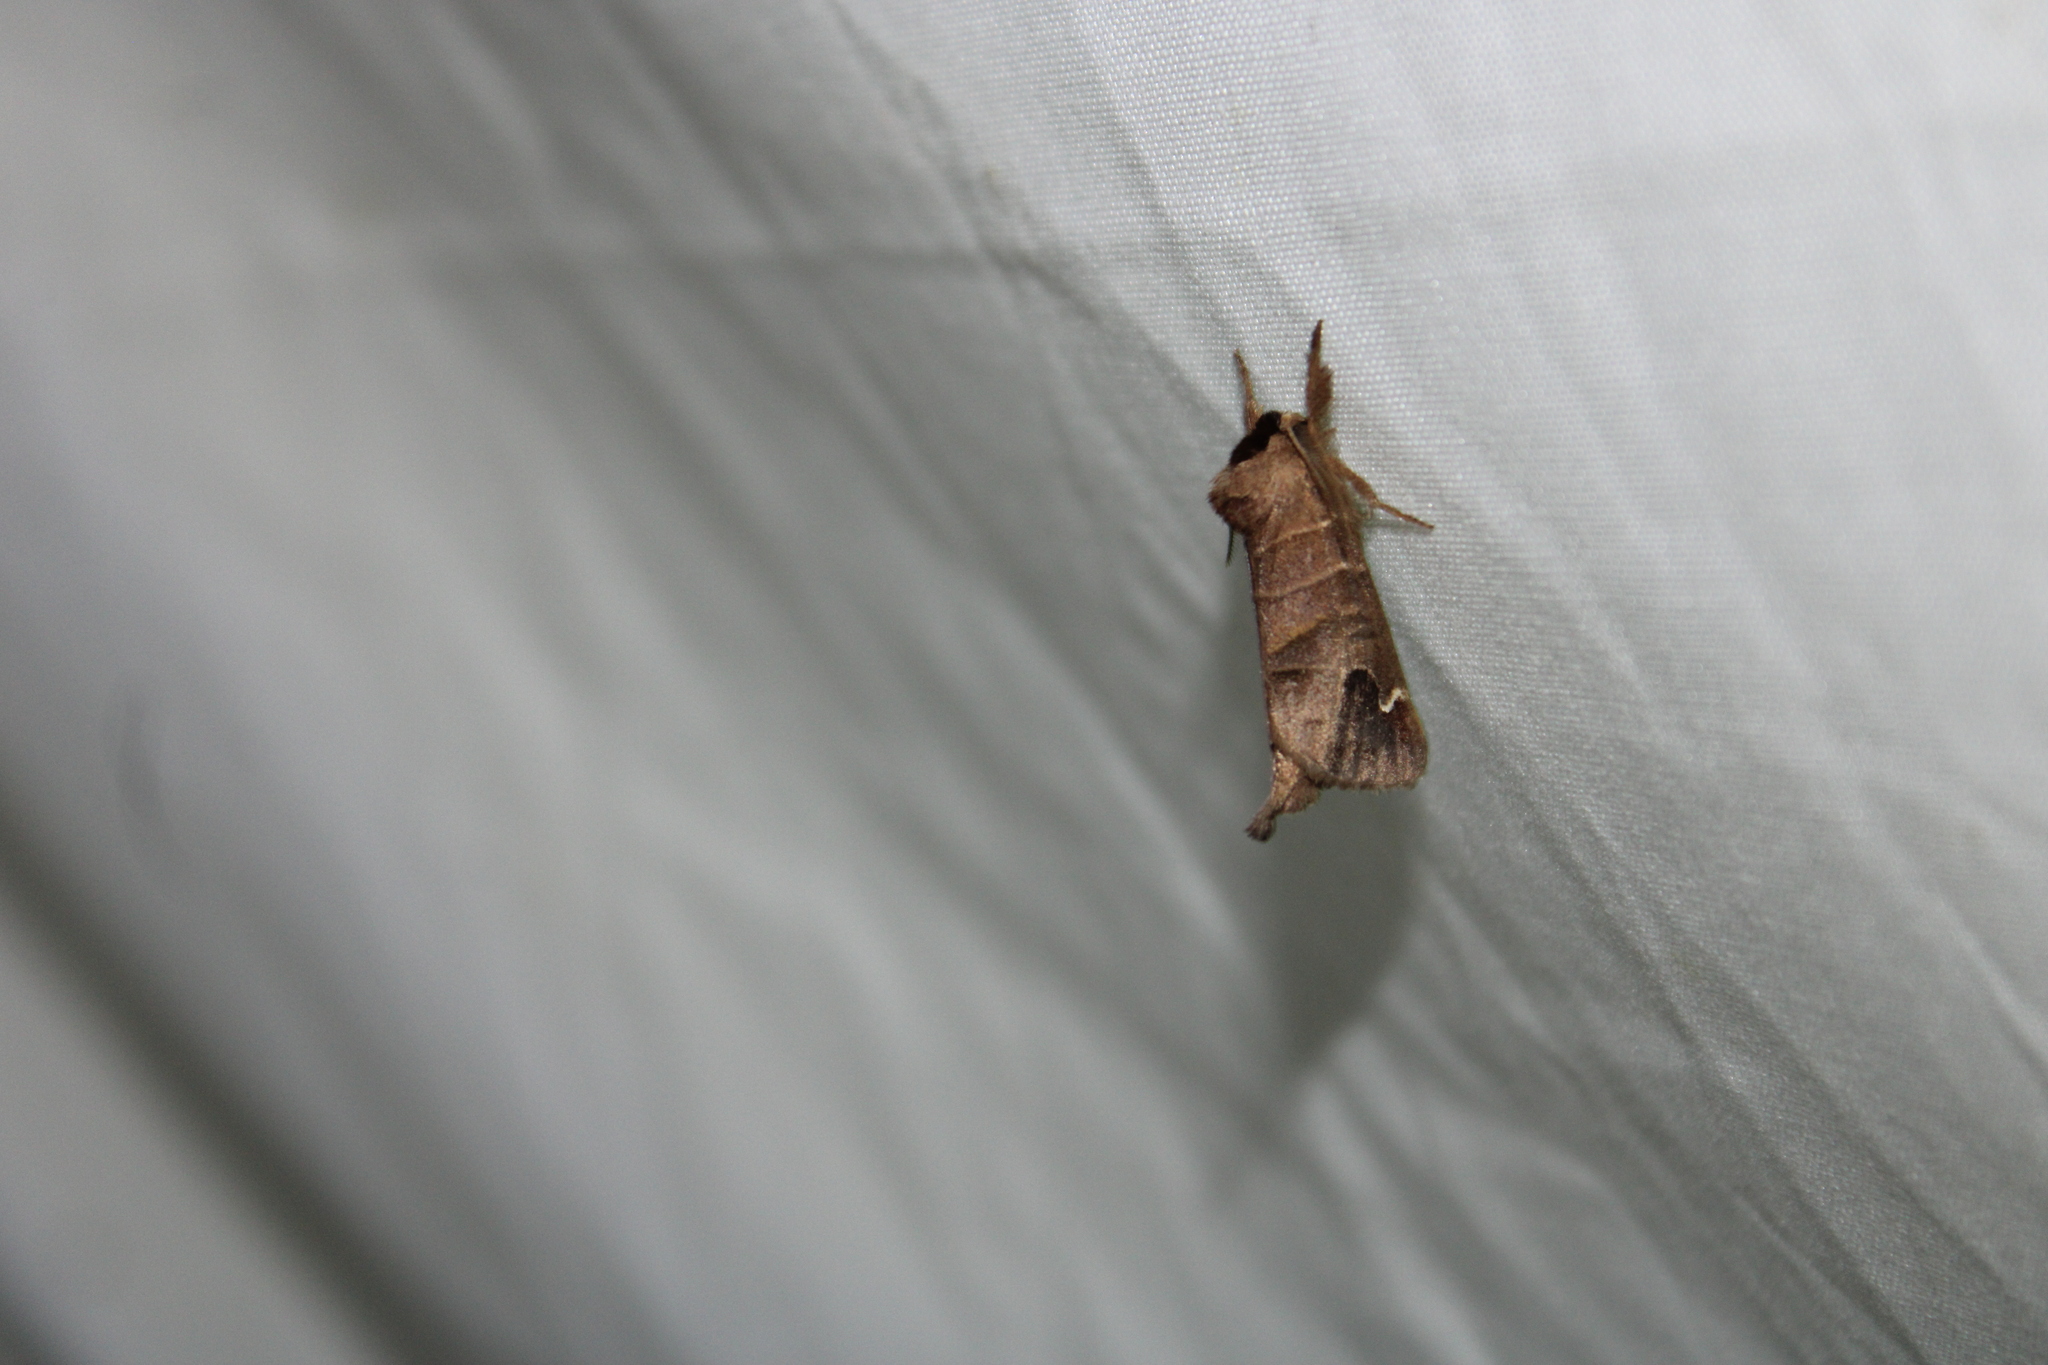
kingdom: Animalia
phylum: Arthropoda
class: Insecta
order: Lepidoptera
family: Notodontidae
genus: Clostera
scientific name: Clostera albosigma
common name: Sigmoid prominent
